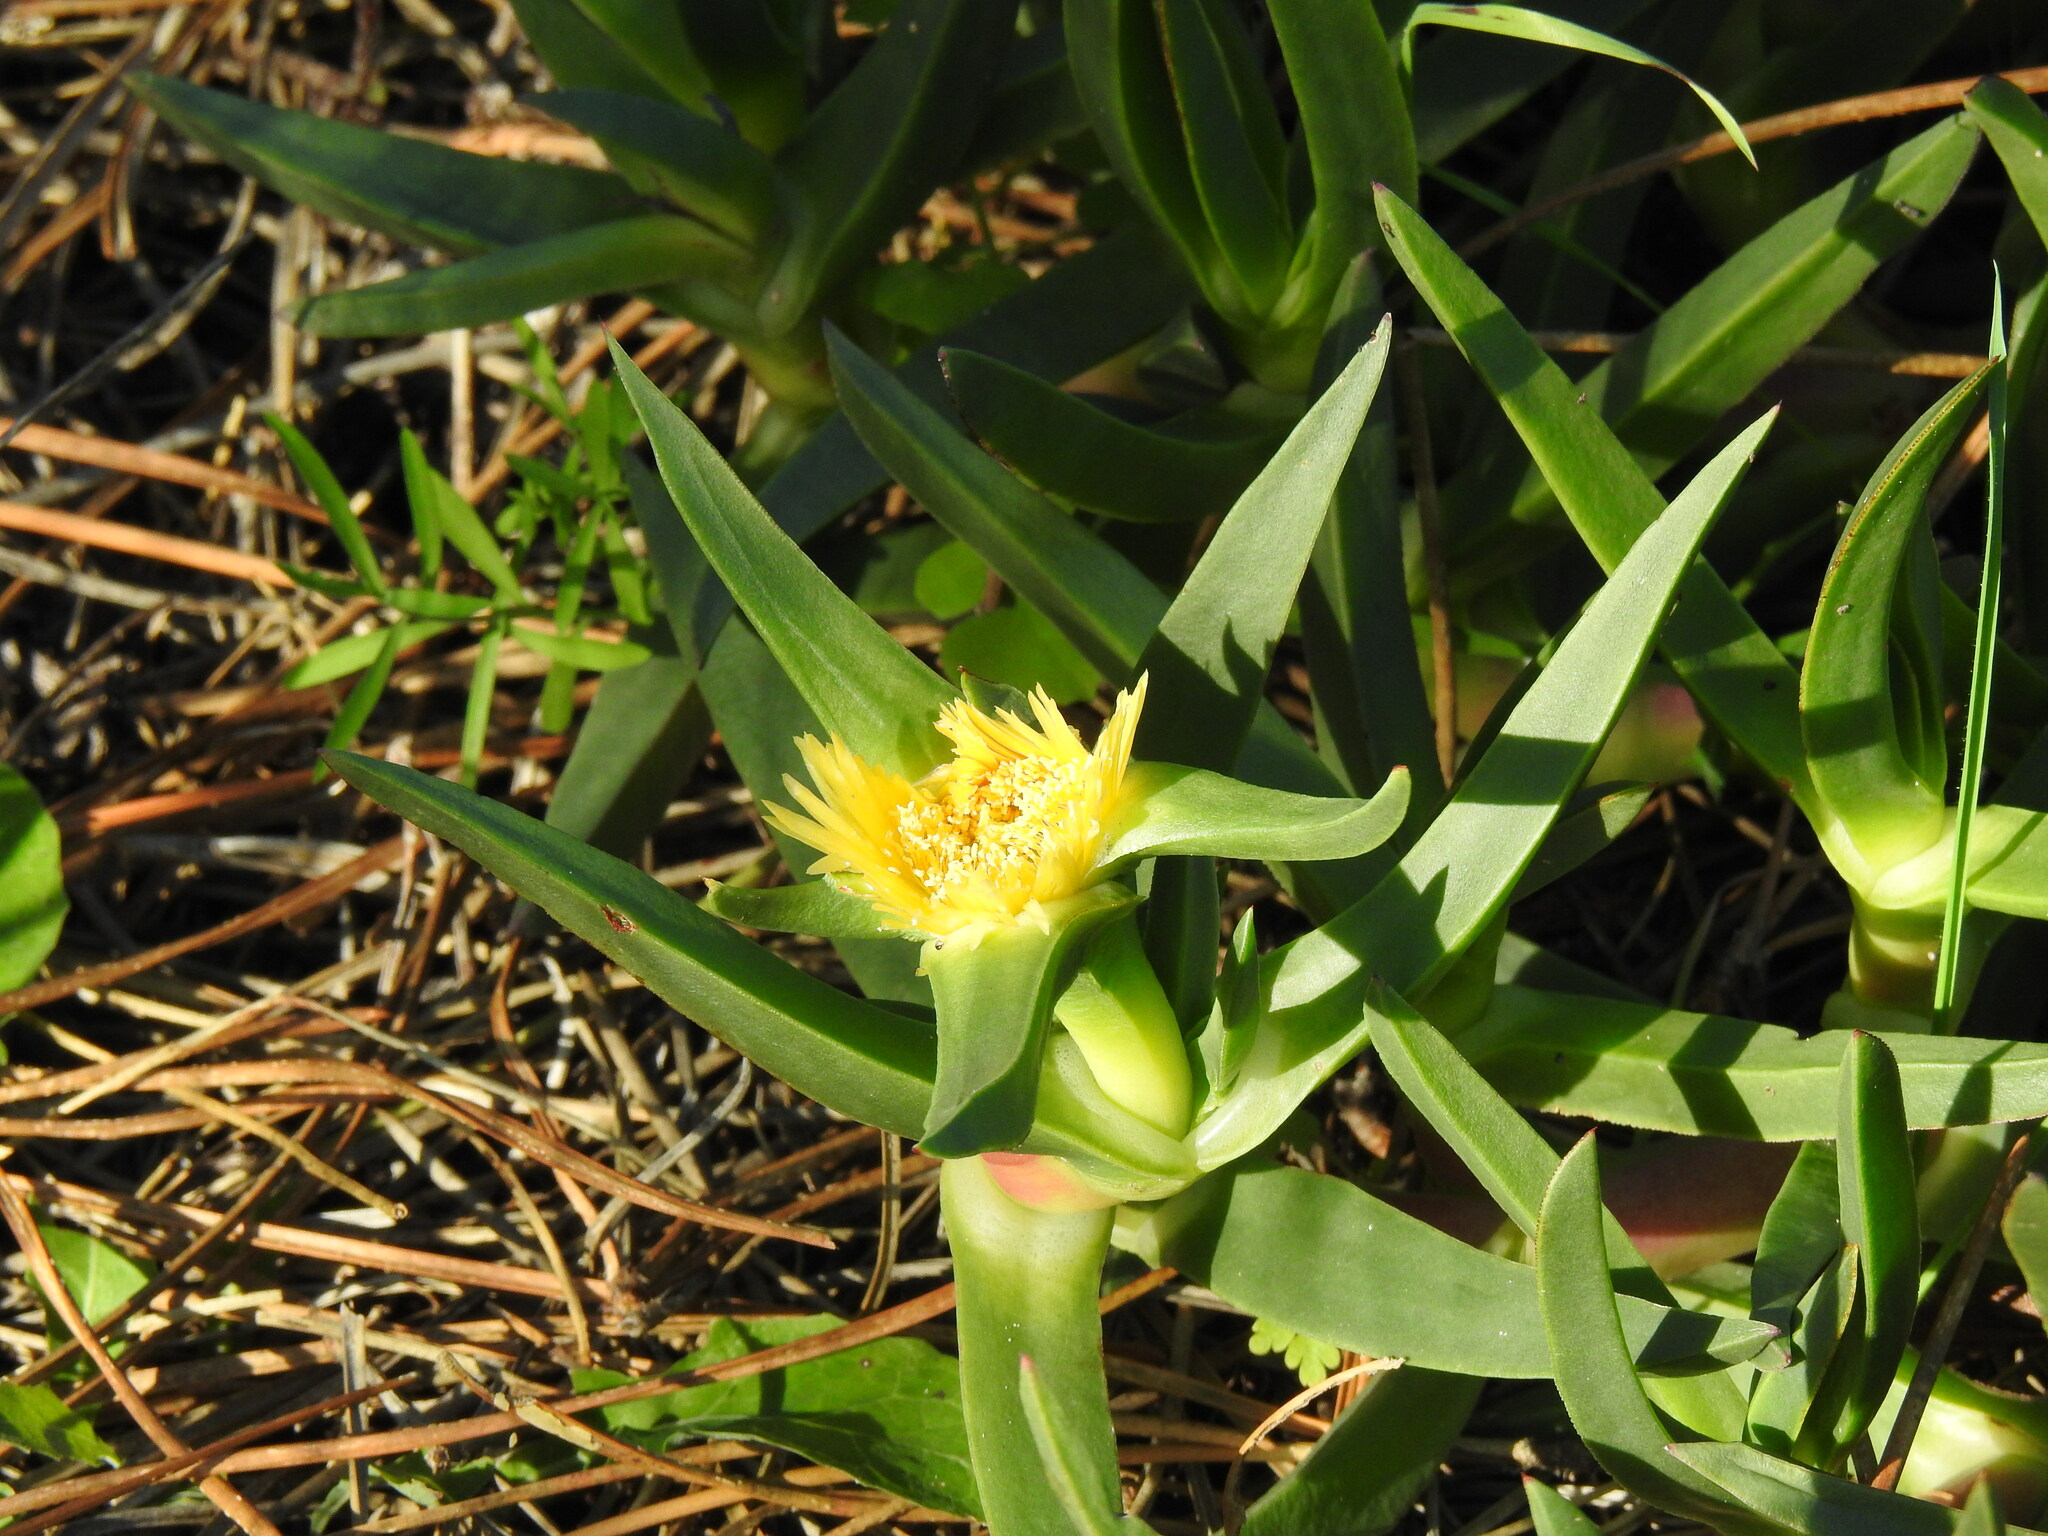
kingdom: Plantae
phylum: Tracheophyta
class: Magnoliopsida
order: Caryophyllales
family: Aizoaceae
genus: Carpobrotus
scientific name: Carpobrotus edulis
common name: Hottentot-fig
